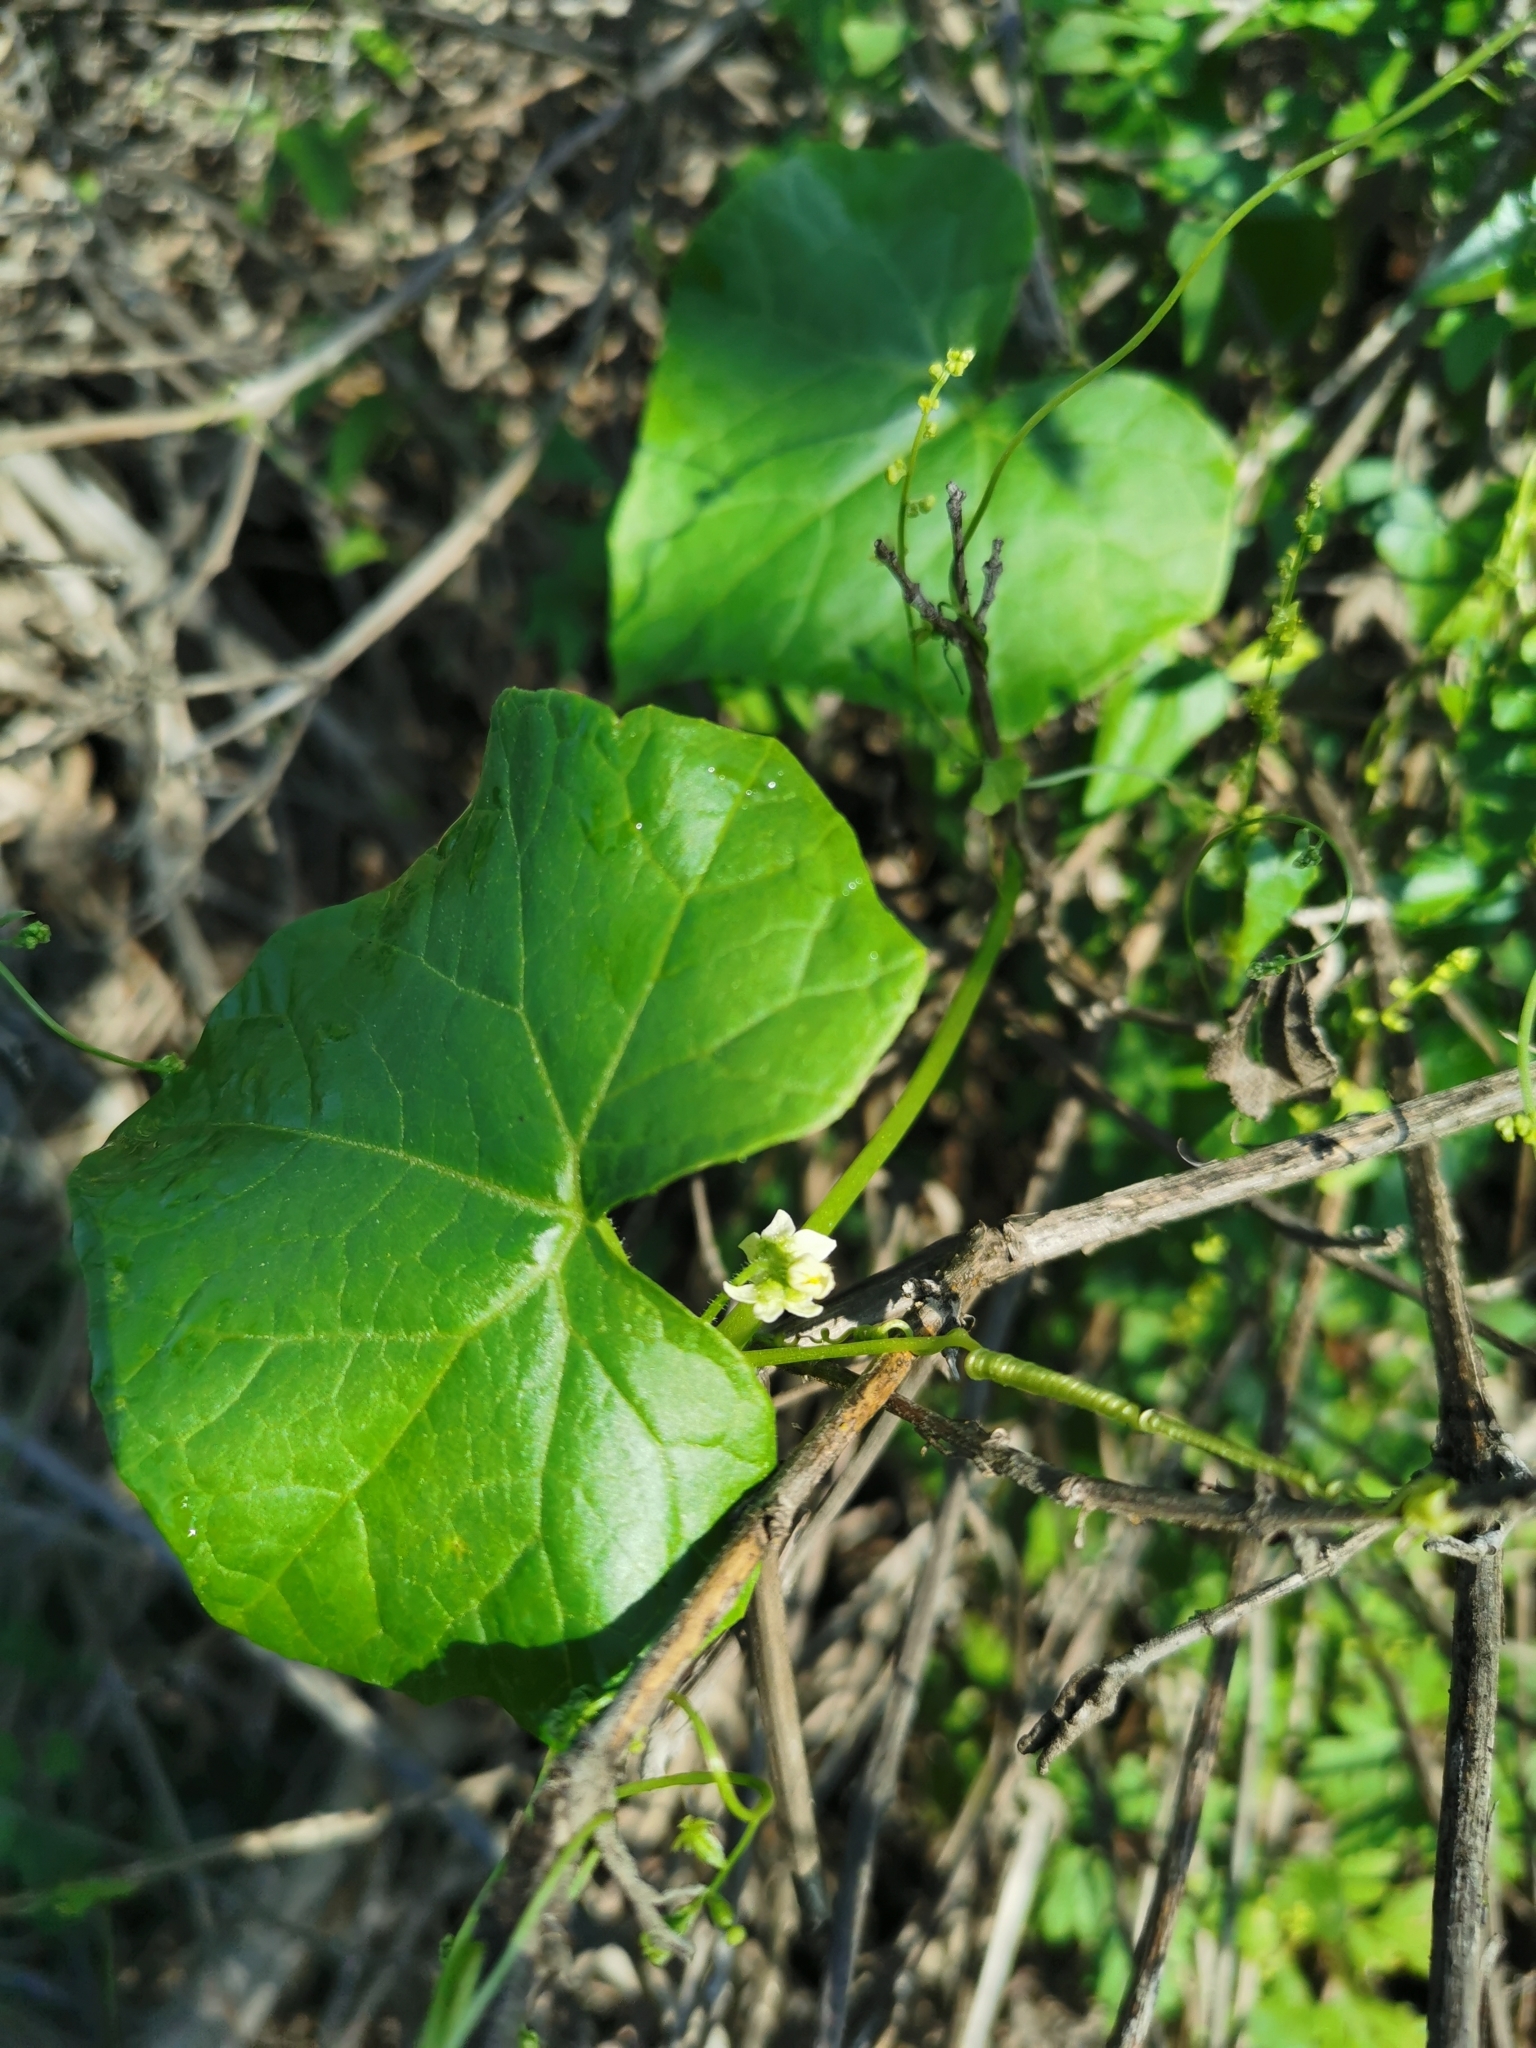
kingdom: Plantae
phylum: Tracheophyta
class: Magnoliopsida
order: Cucurbitales
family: Cucurbitaceae
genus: Sicyos
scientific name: Sicyos baderoa
